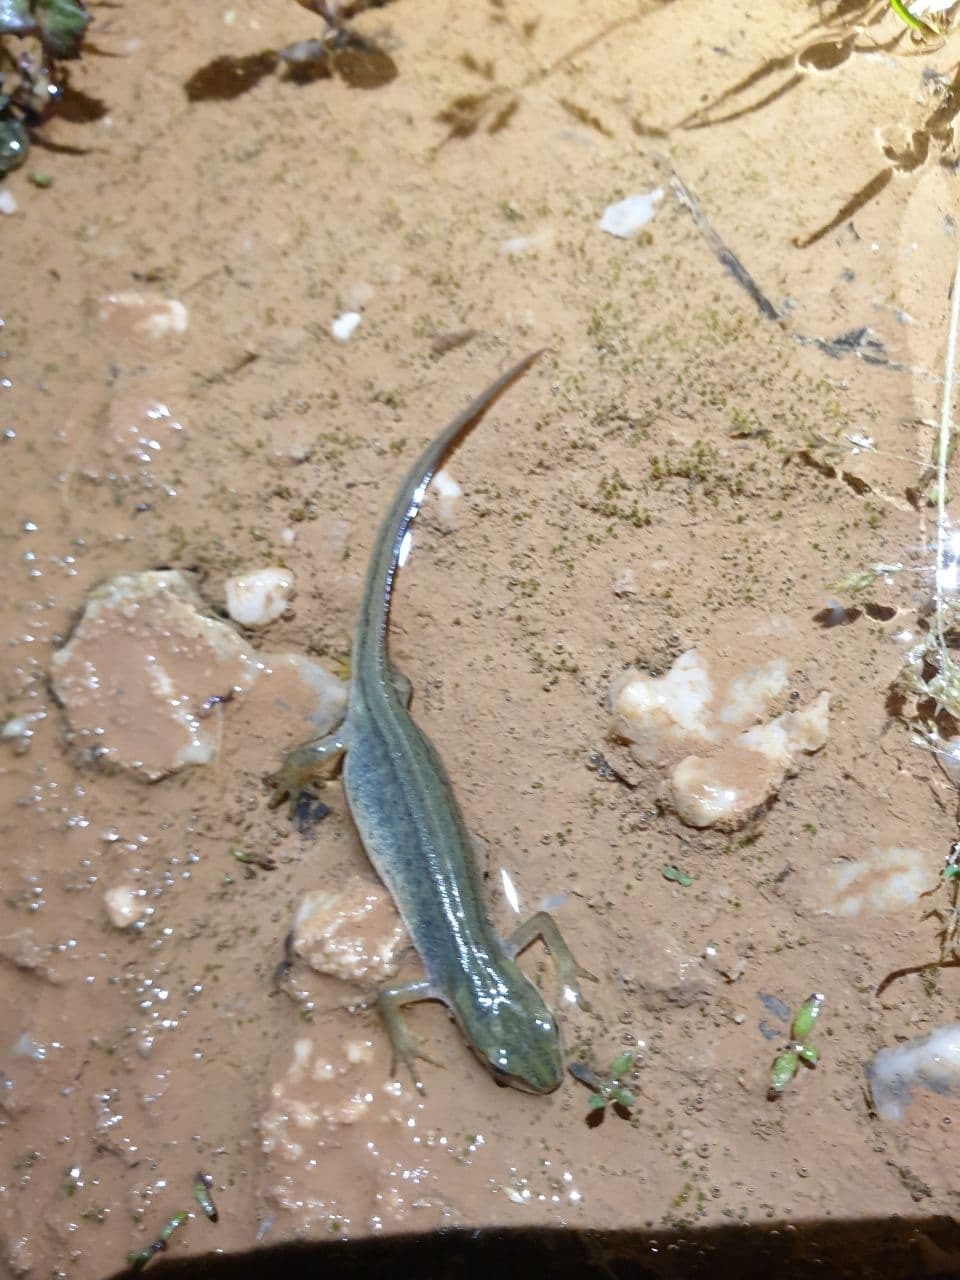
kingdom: Animalia
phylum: Chordata
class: Amphibia
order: Caudata
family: Salamandridae
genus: Lissotriton
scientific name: Lissotriton vulgaris
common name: Smooth newt
